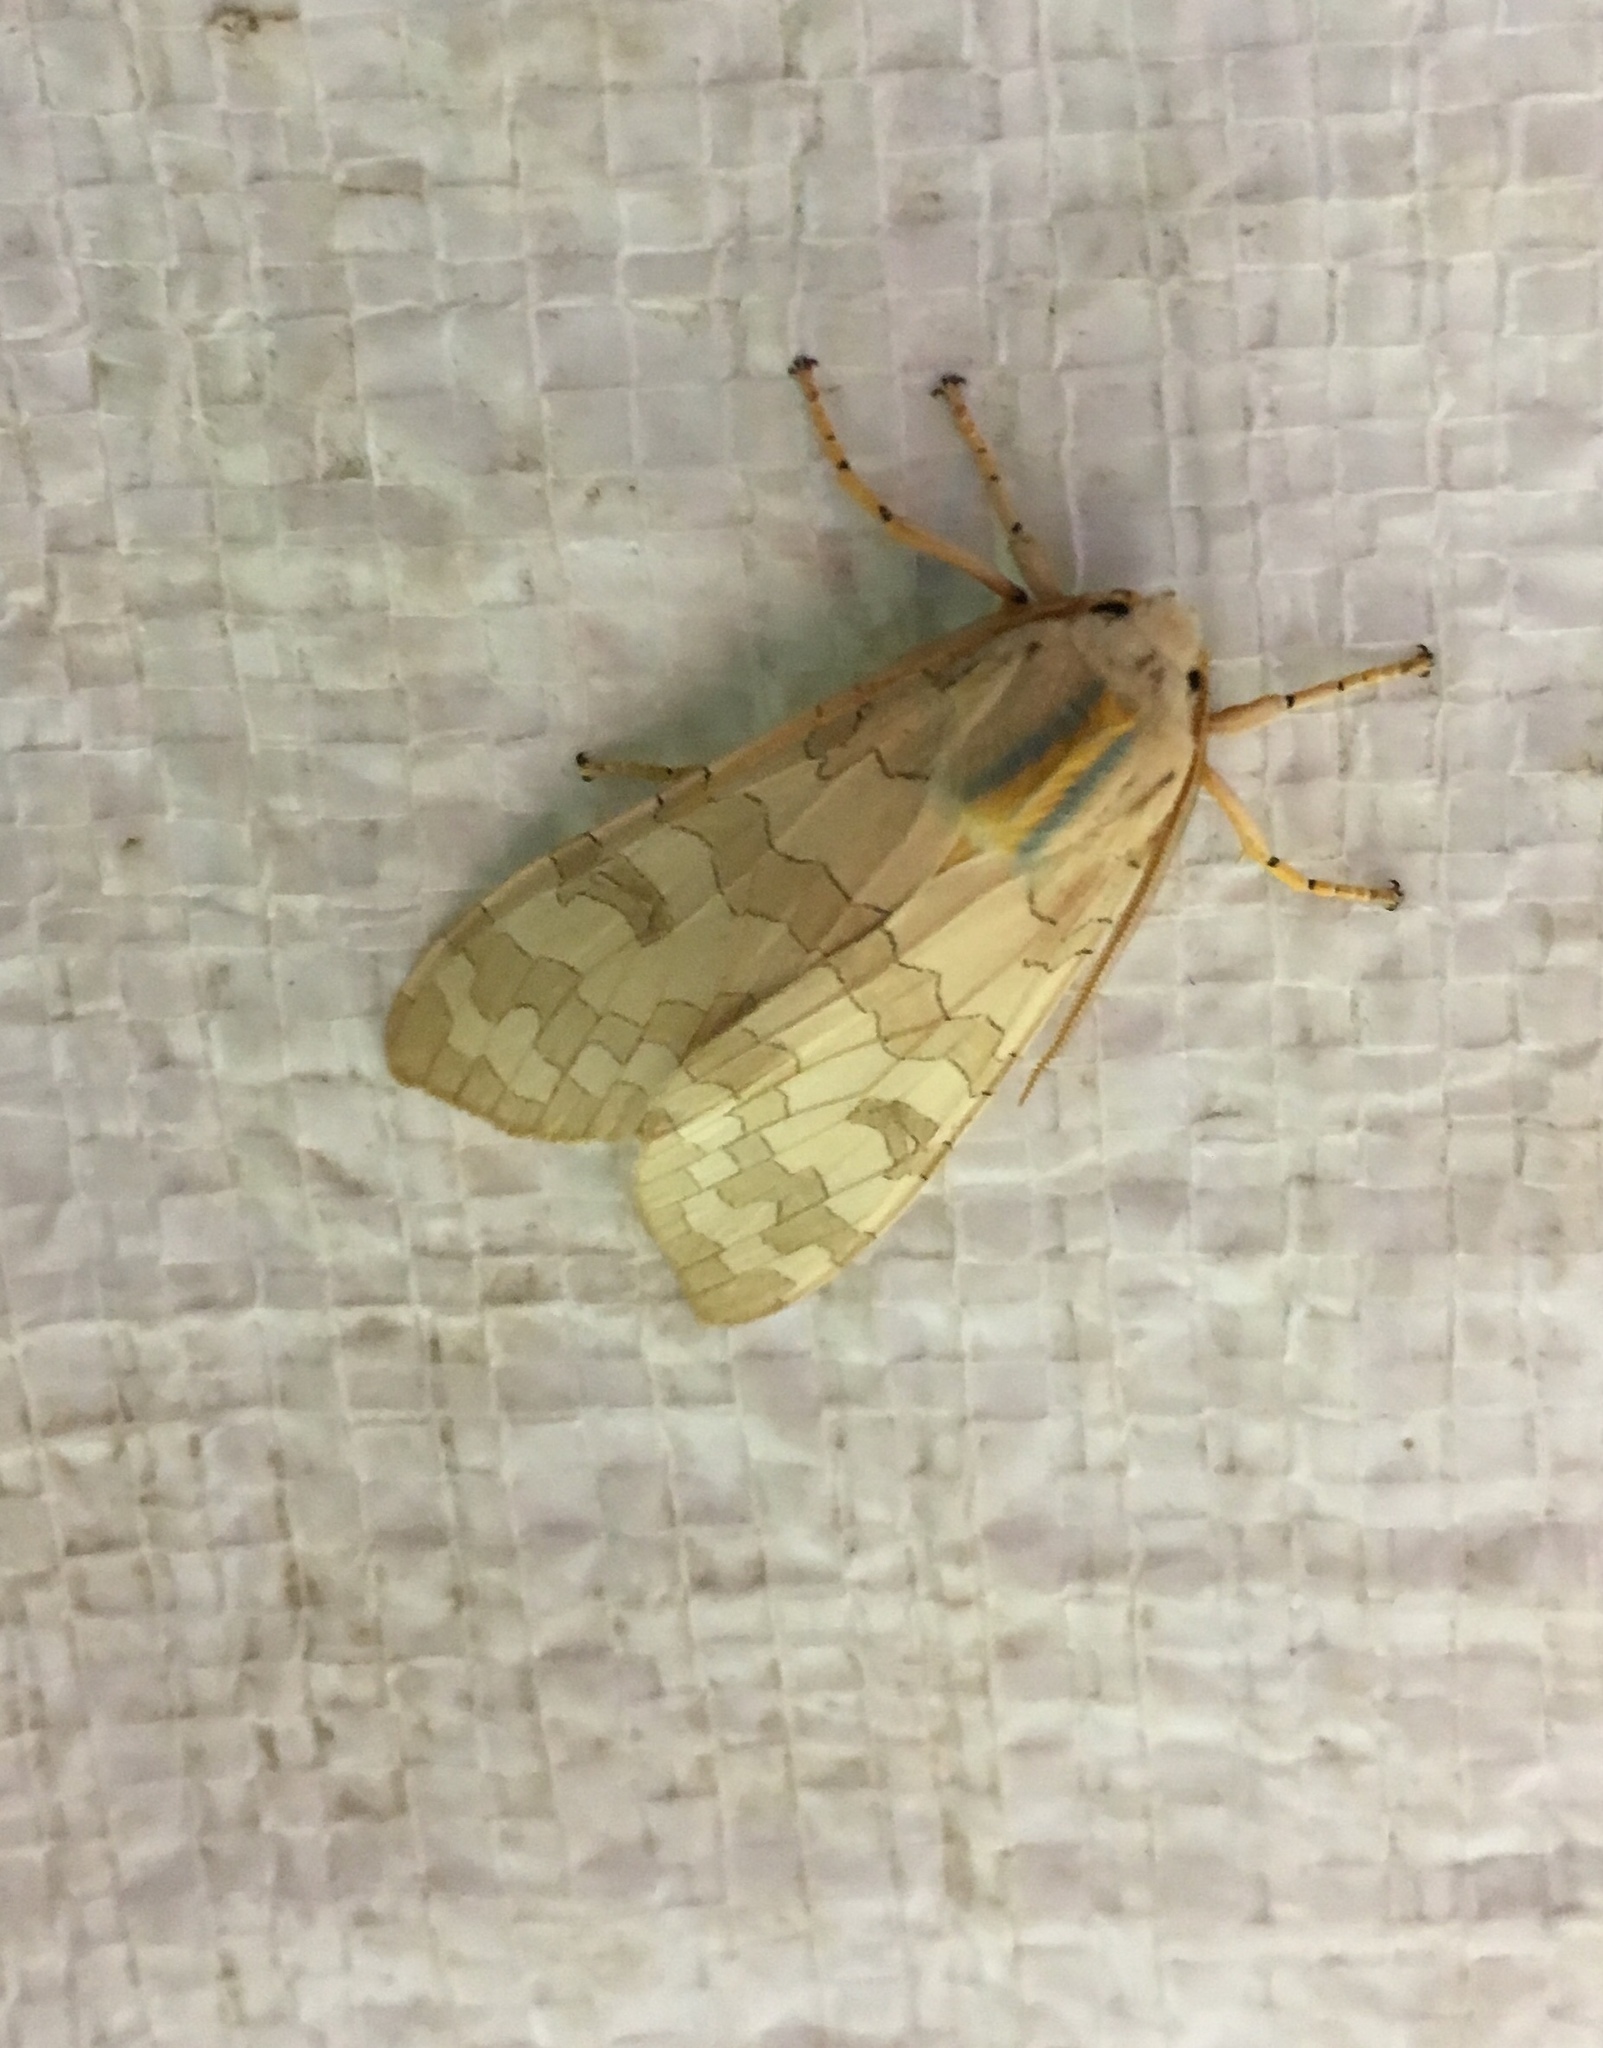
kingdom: Animalia
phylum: Arthropoda
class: Insecta
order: Lepidoptera
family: Erebidae
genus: Halysidota
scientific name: Halysidota tessellaris
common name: Banded tussock moth
